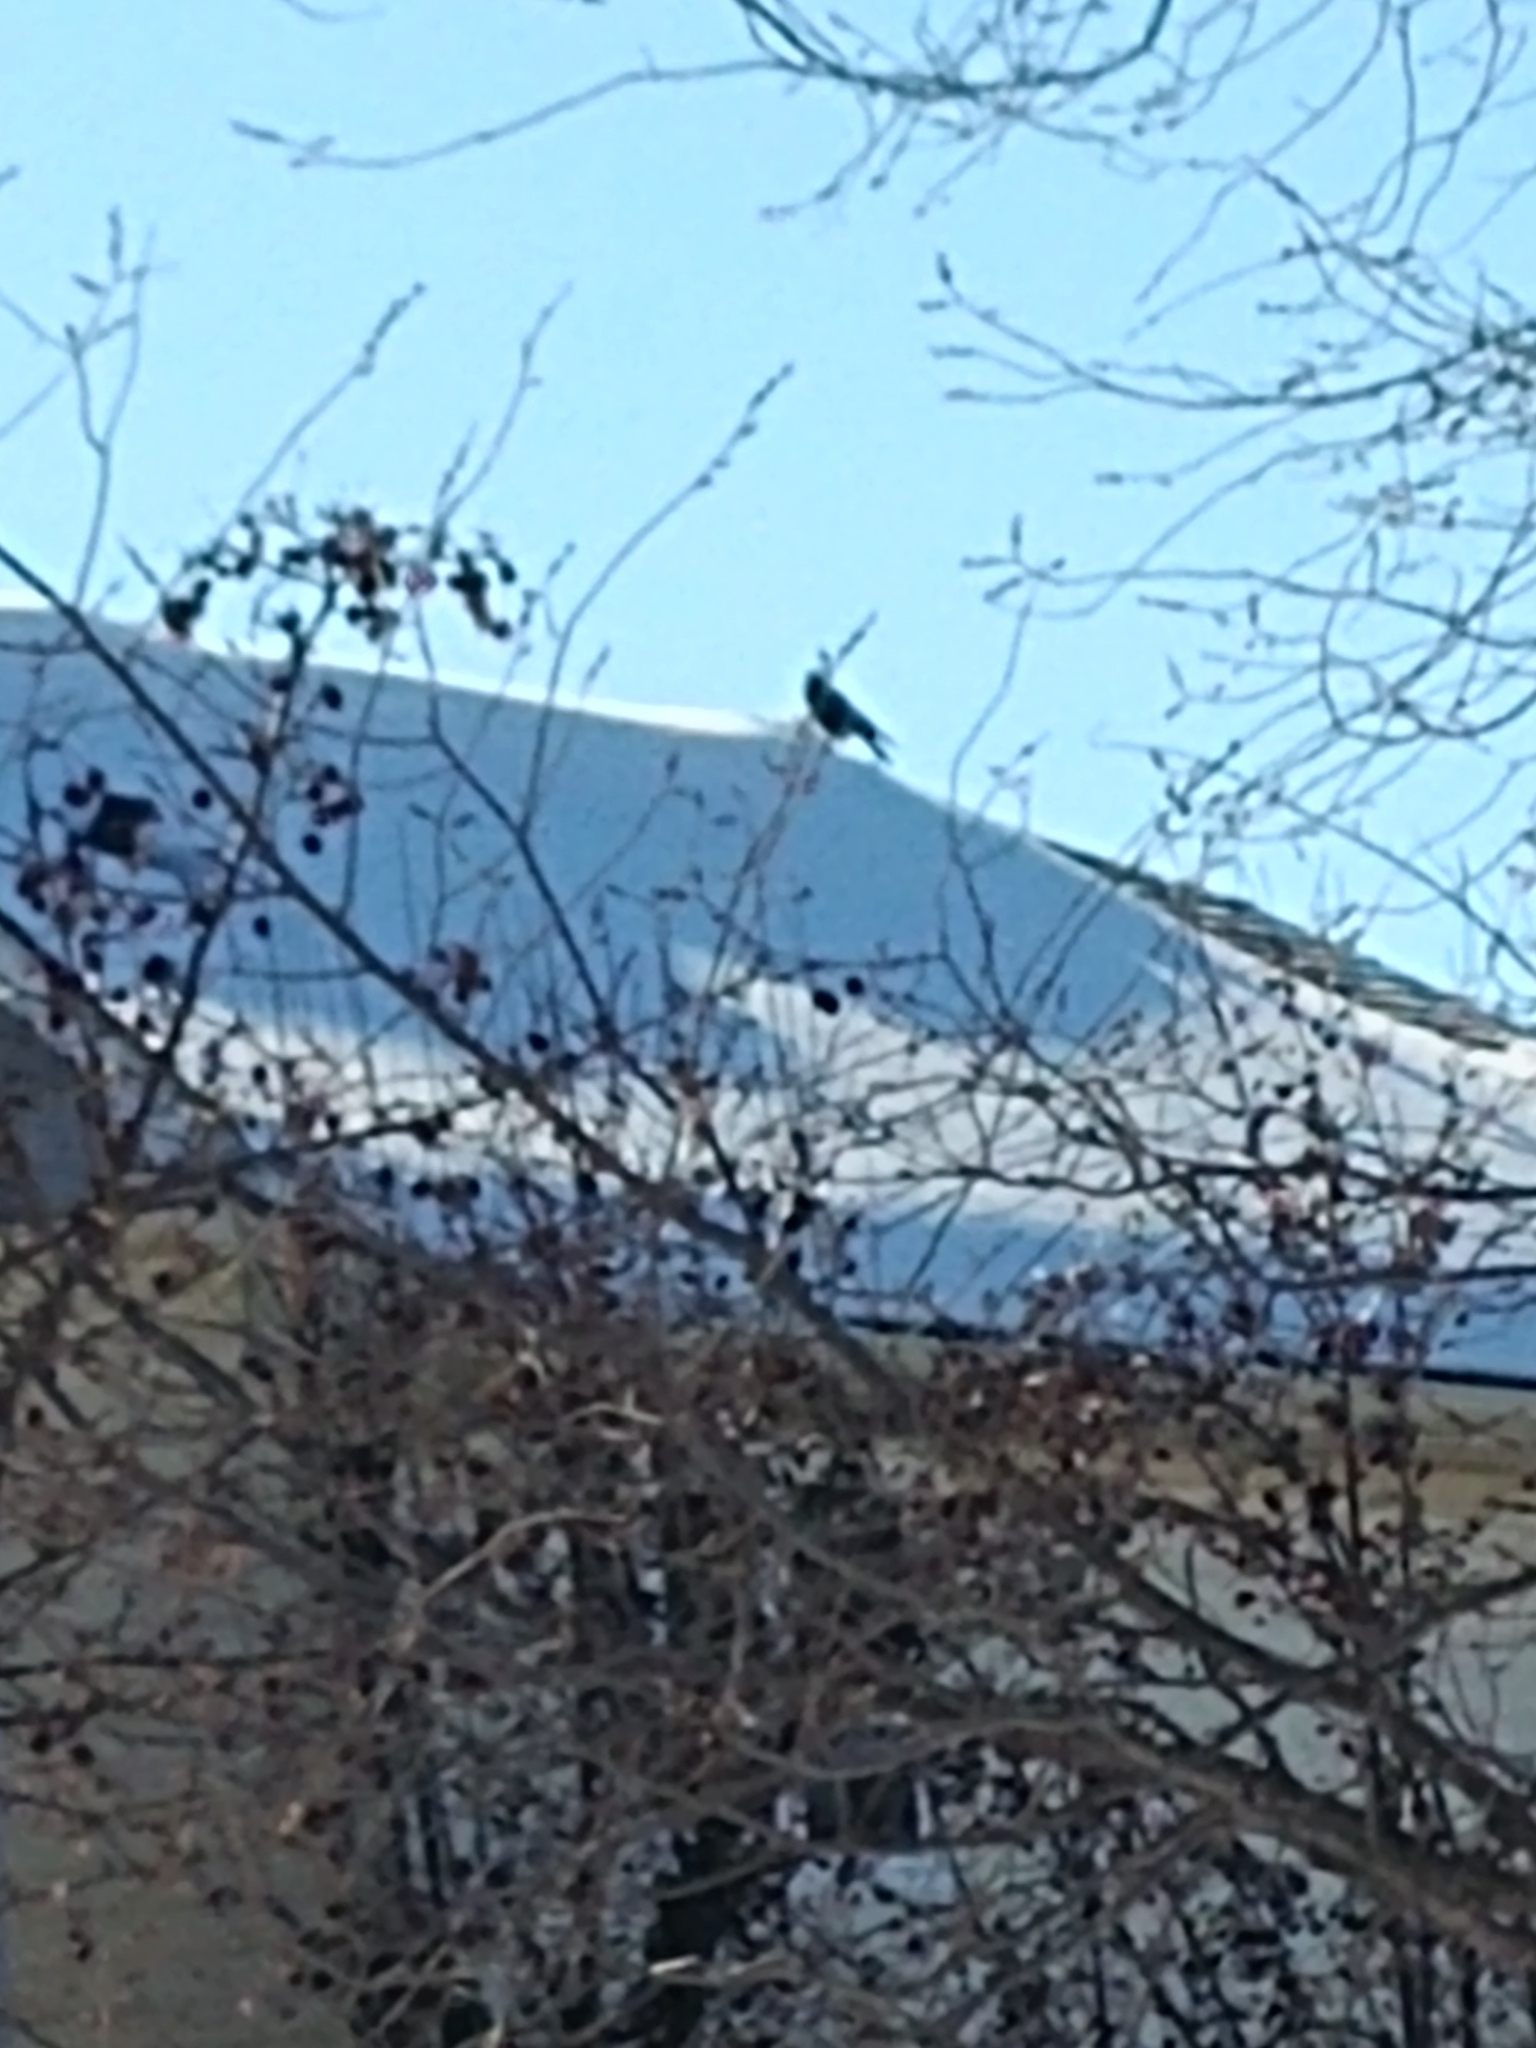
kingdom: Animalia
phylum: Chordata
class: Aves
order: Passeriformes
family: Corvidae
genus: Corvus
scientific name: Corvus brachyrhynchos
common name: American crow
